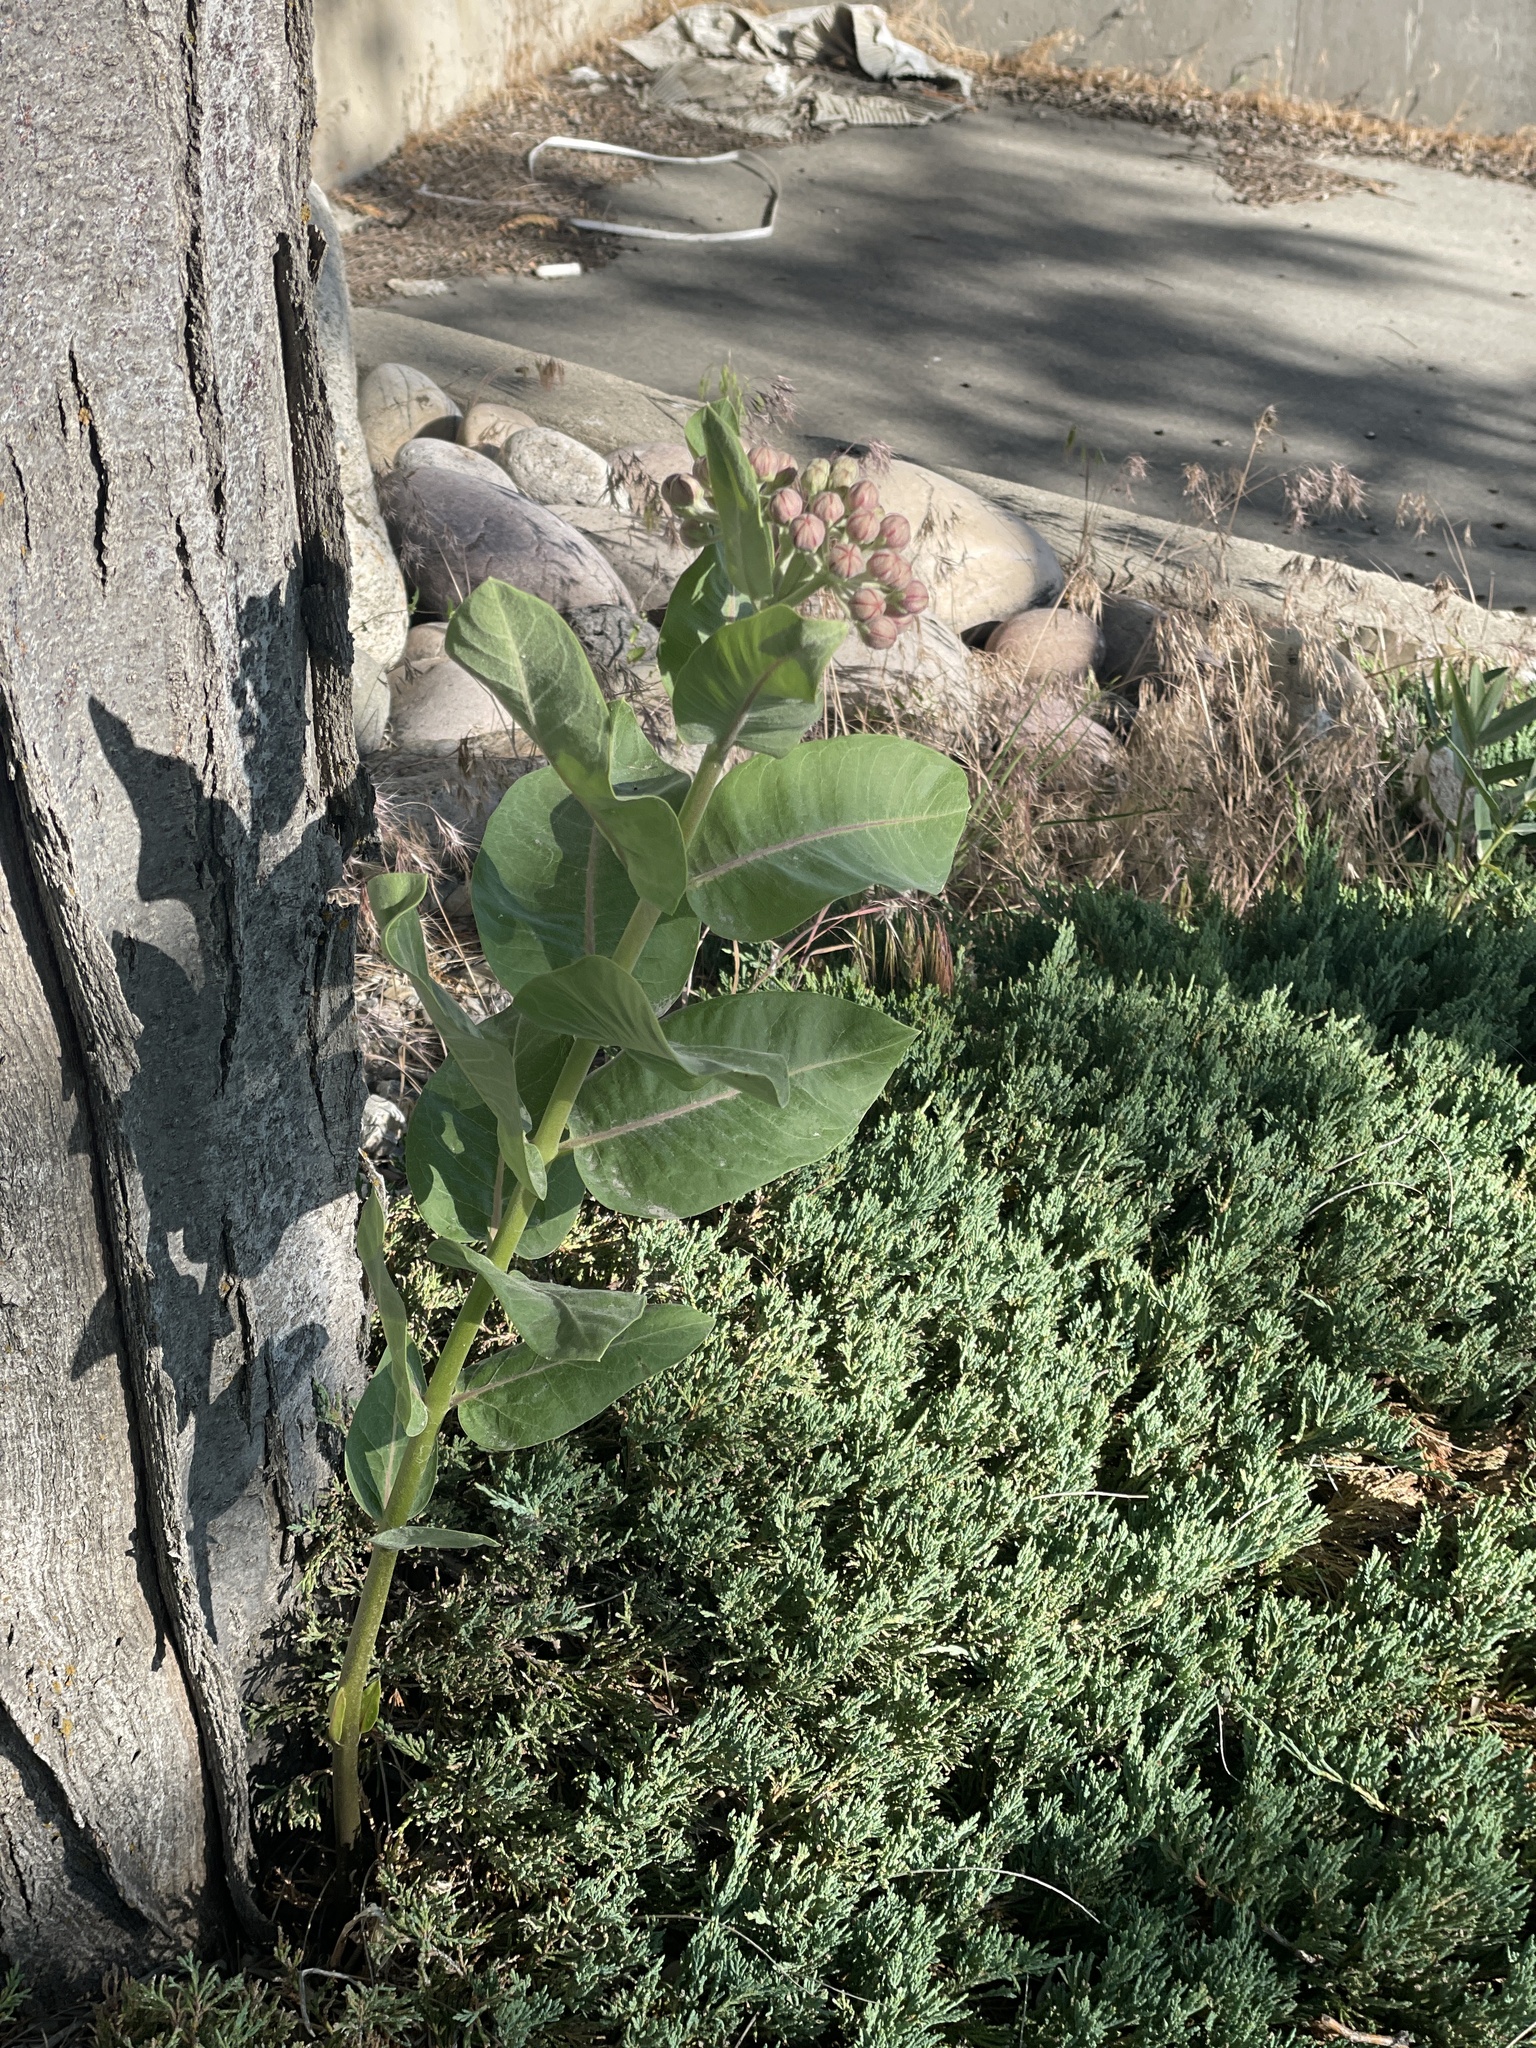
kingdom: Plantae
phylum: Tracheophyta
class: Magnoliopsida
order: Gentianales
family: Apocynaceae
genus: Asclepias
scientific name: Asclepias speciosa
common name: Showy milkweed
